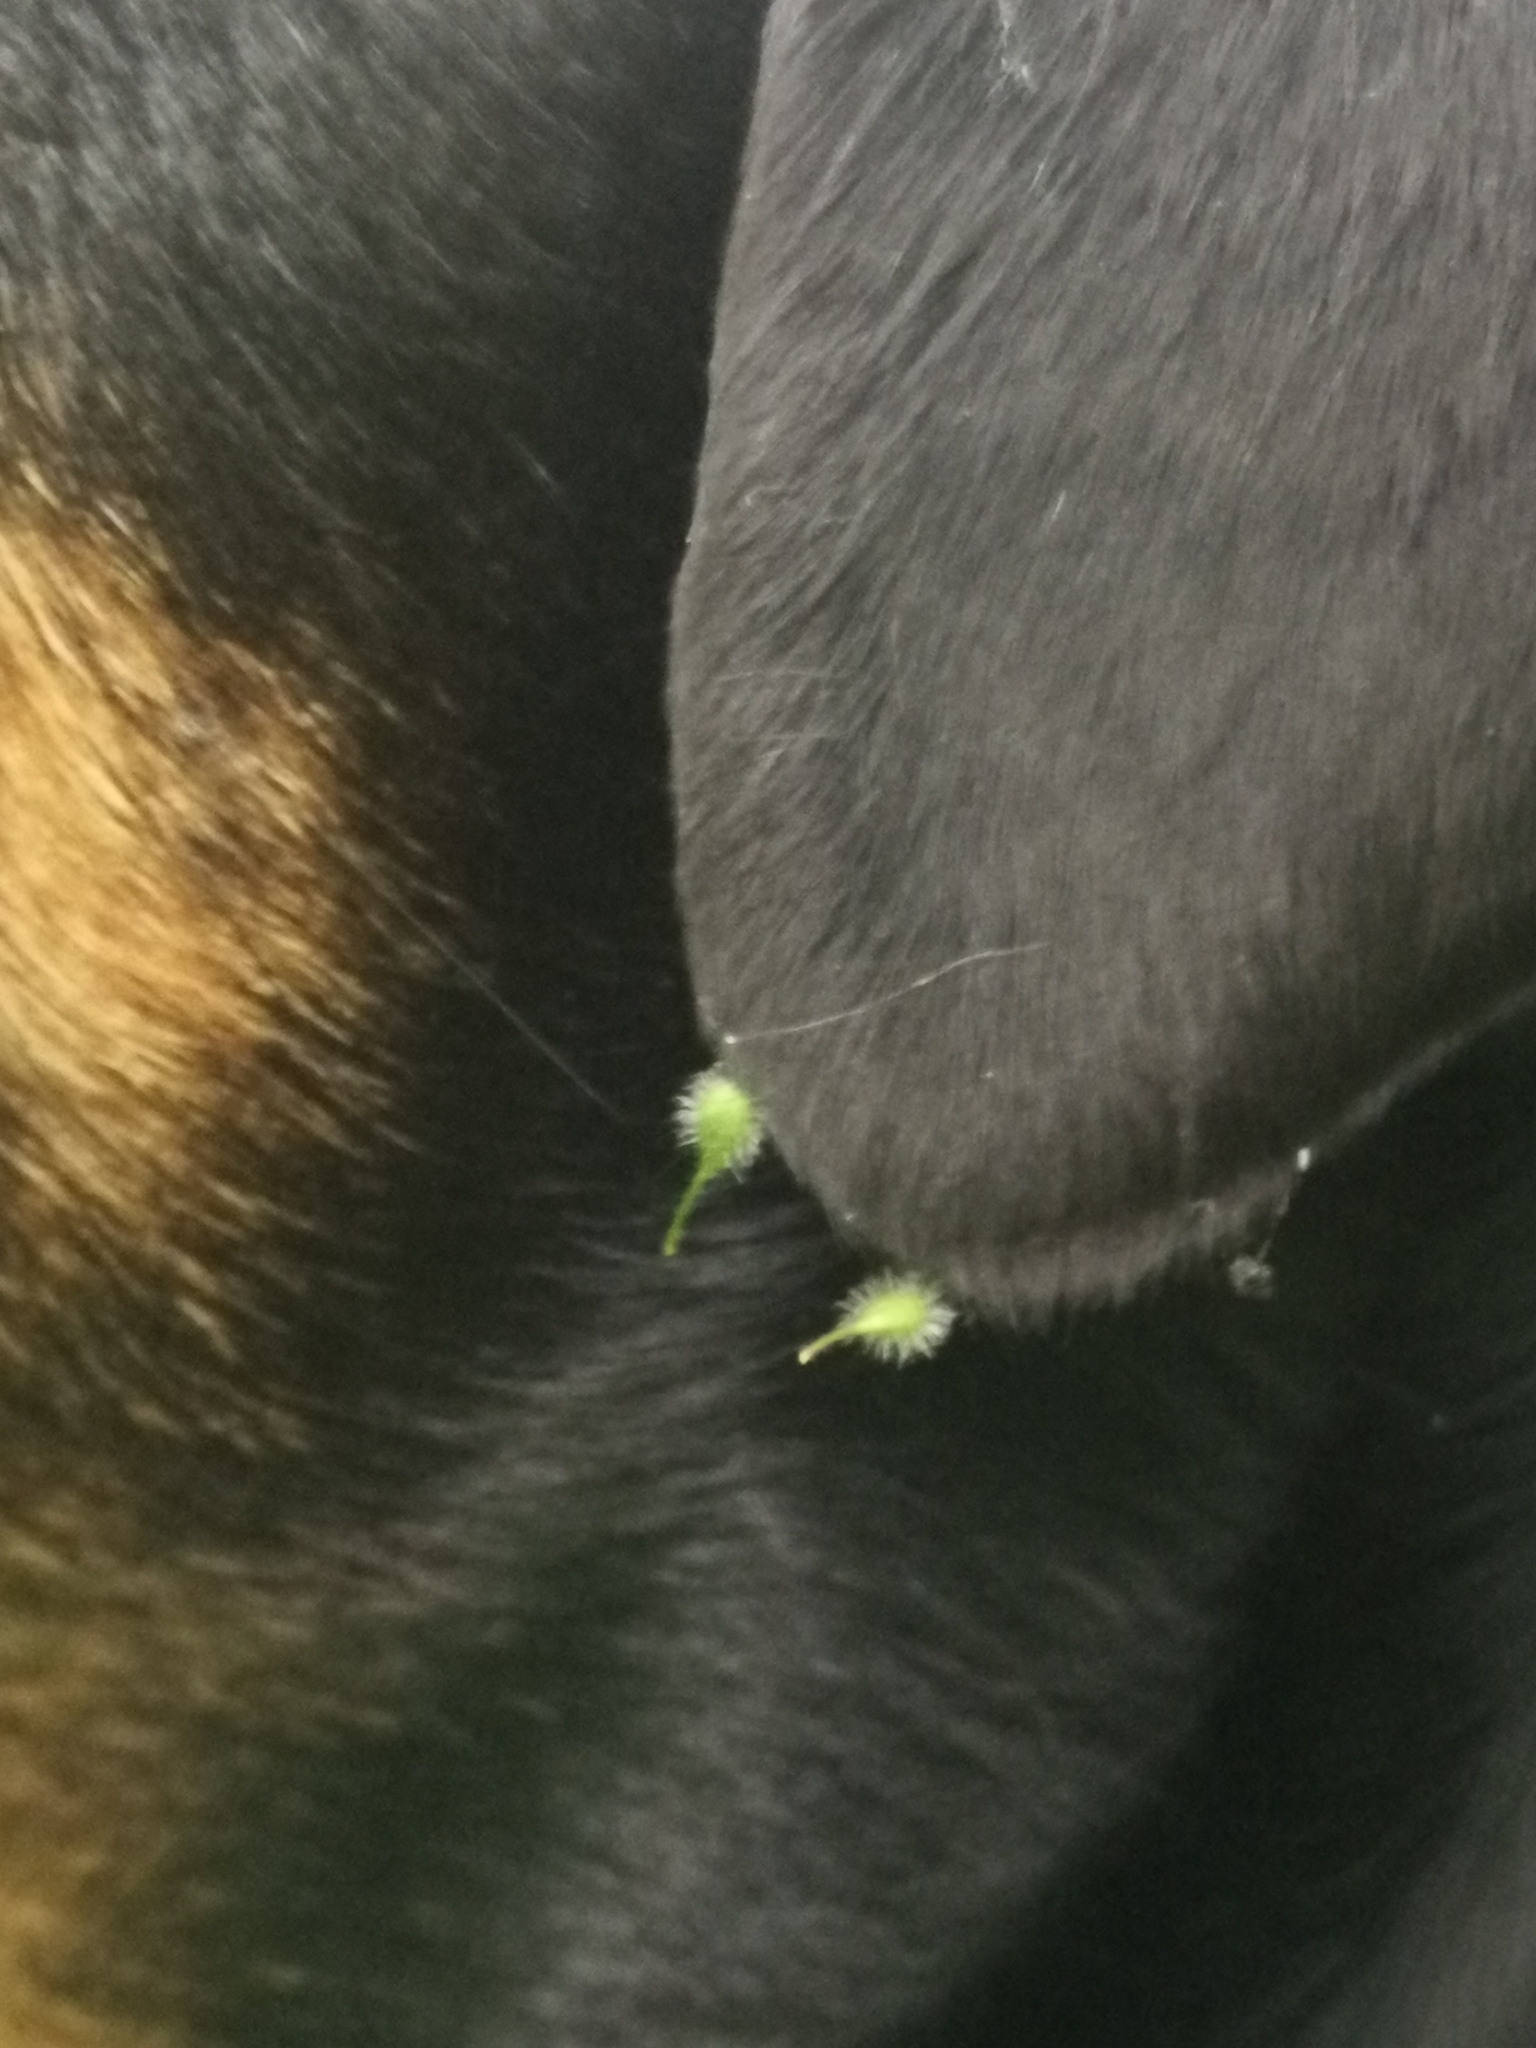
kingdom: Plantae
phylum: Tracheophyta
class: Magnoliopsida
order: Myrtales
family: Onagraceae
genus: Circaea
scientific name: Circaea lutetiana
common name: Enchanter's-nightshade
